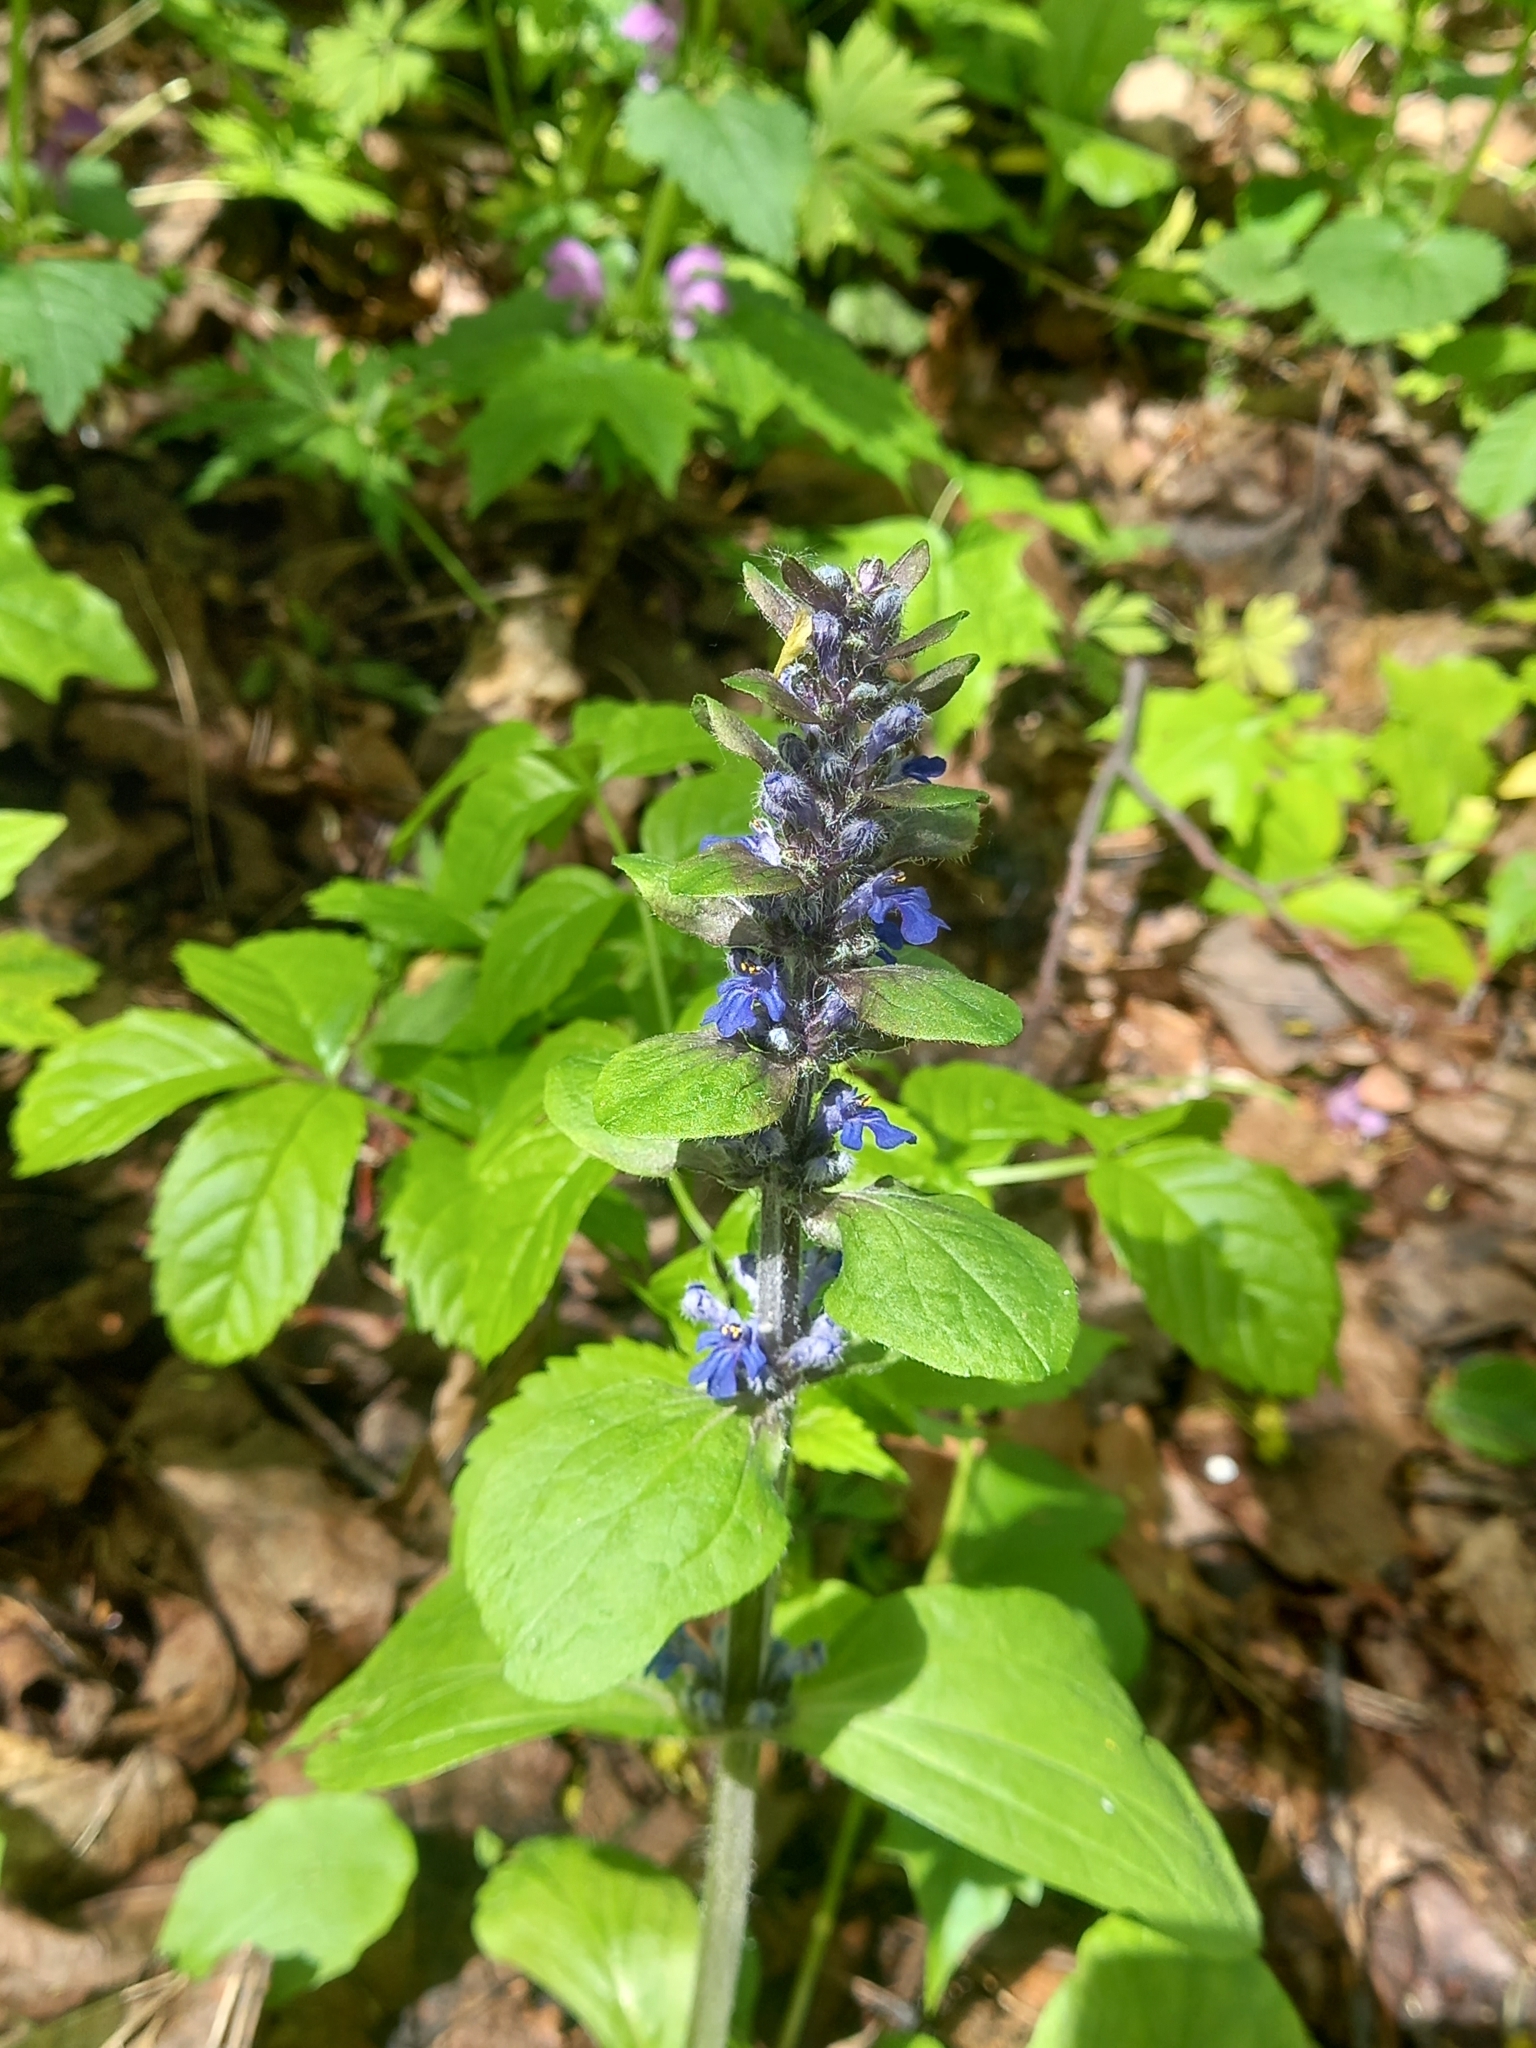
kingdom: Plantae
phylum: Tracheophyta
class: Magnoliopsida
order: Lamiales
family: Lamiaceae
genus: Ajuga
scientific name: Ajuga reptans
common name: Bugle
